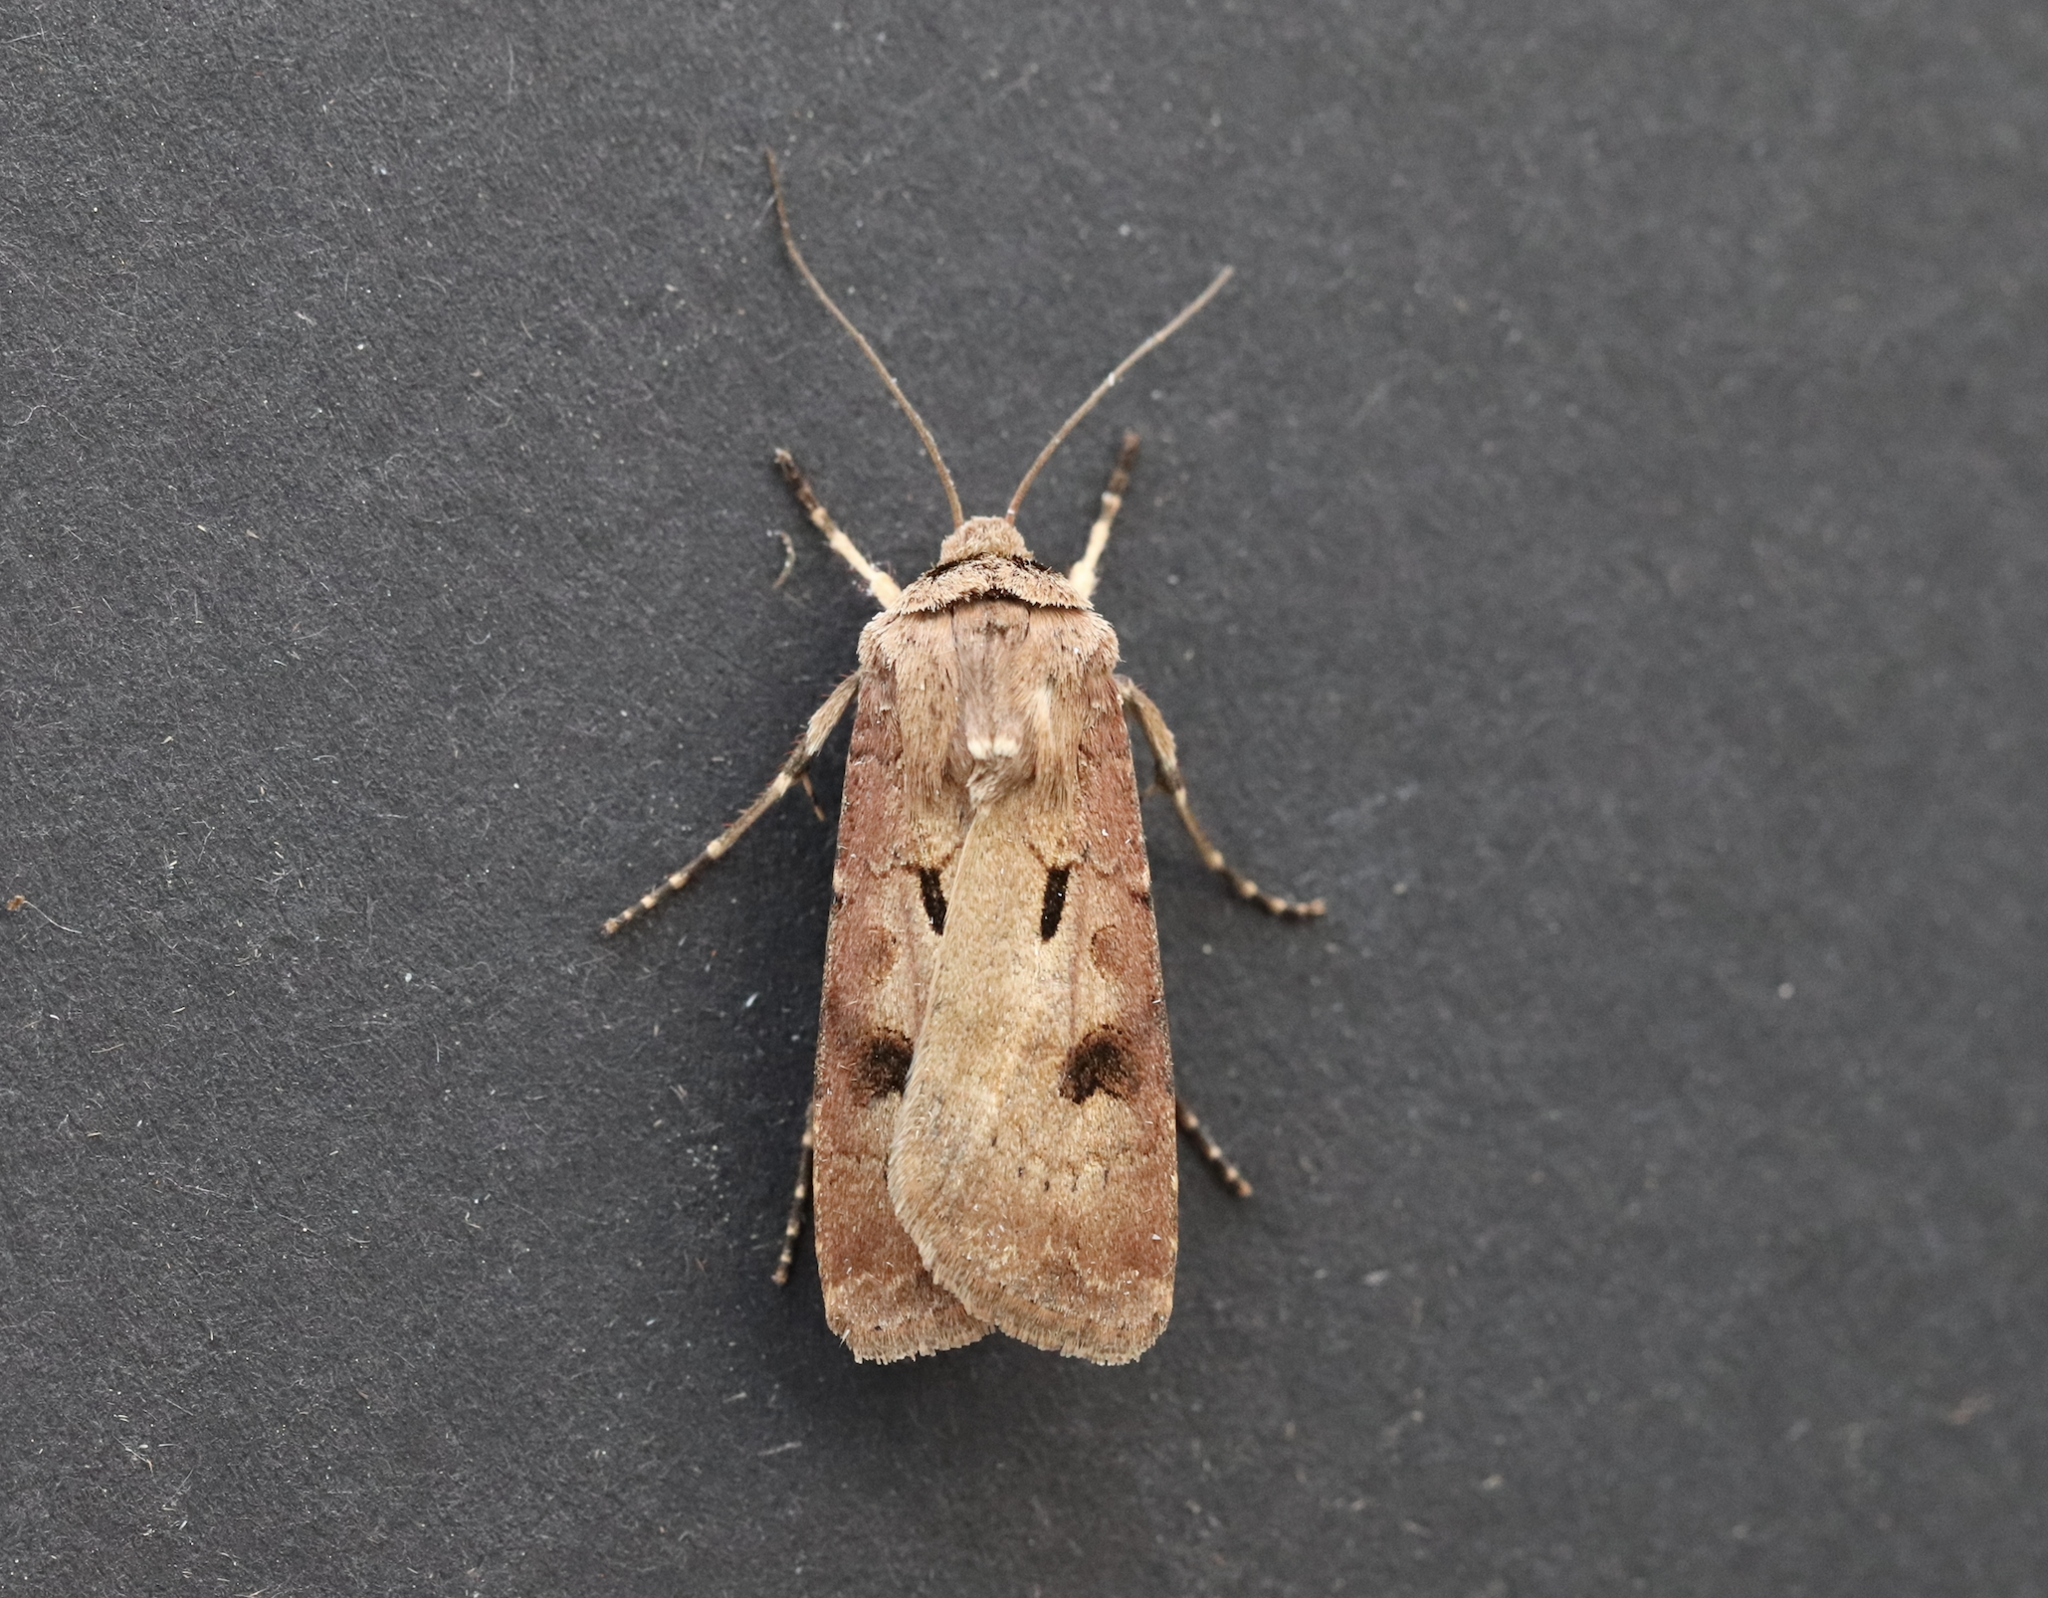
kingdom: Animalia
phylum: Arthropoda
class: Insecta
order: Lepidoptera
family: Noctuidae
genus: Agrotis
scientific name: Agrotis exclamationis
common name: Heart and dart
